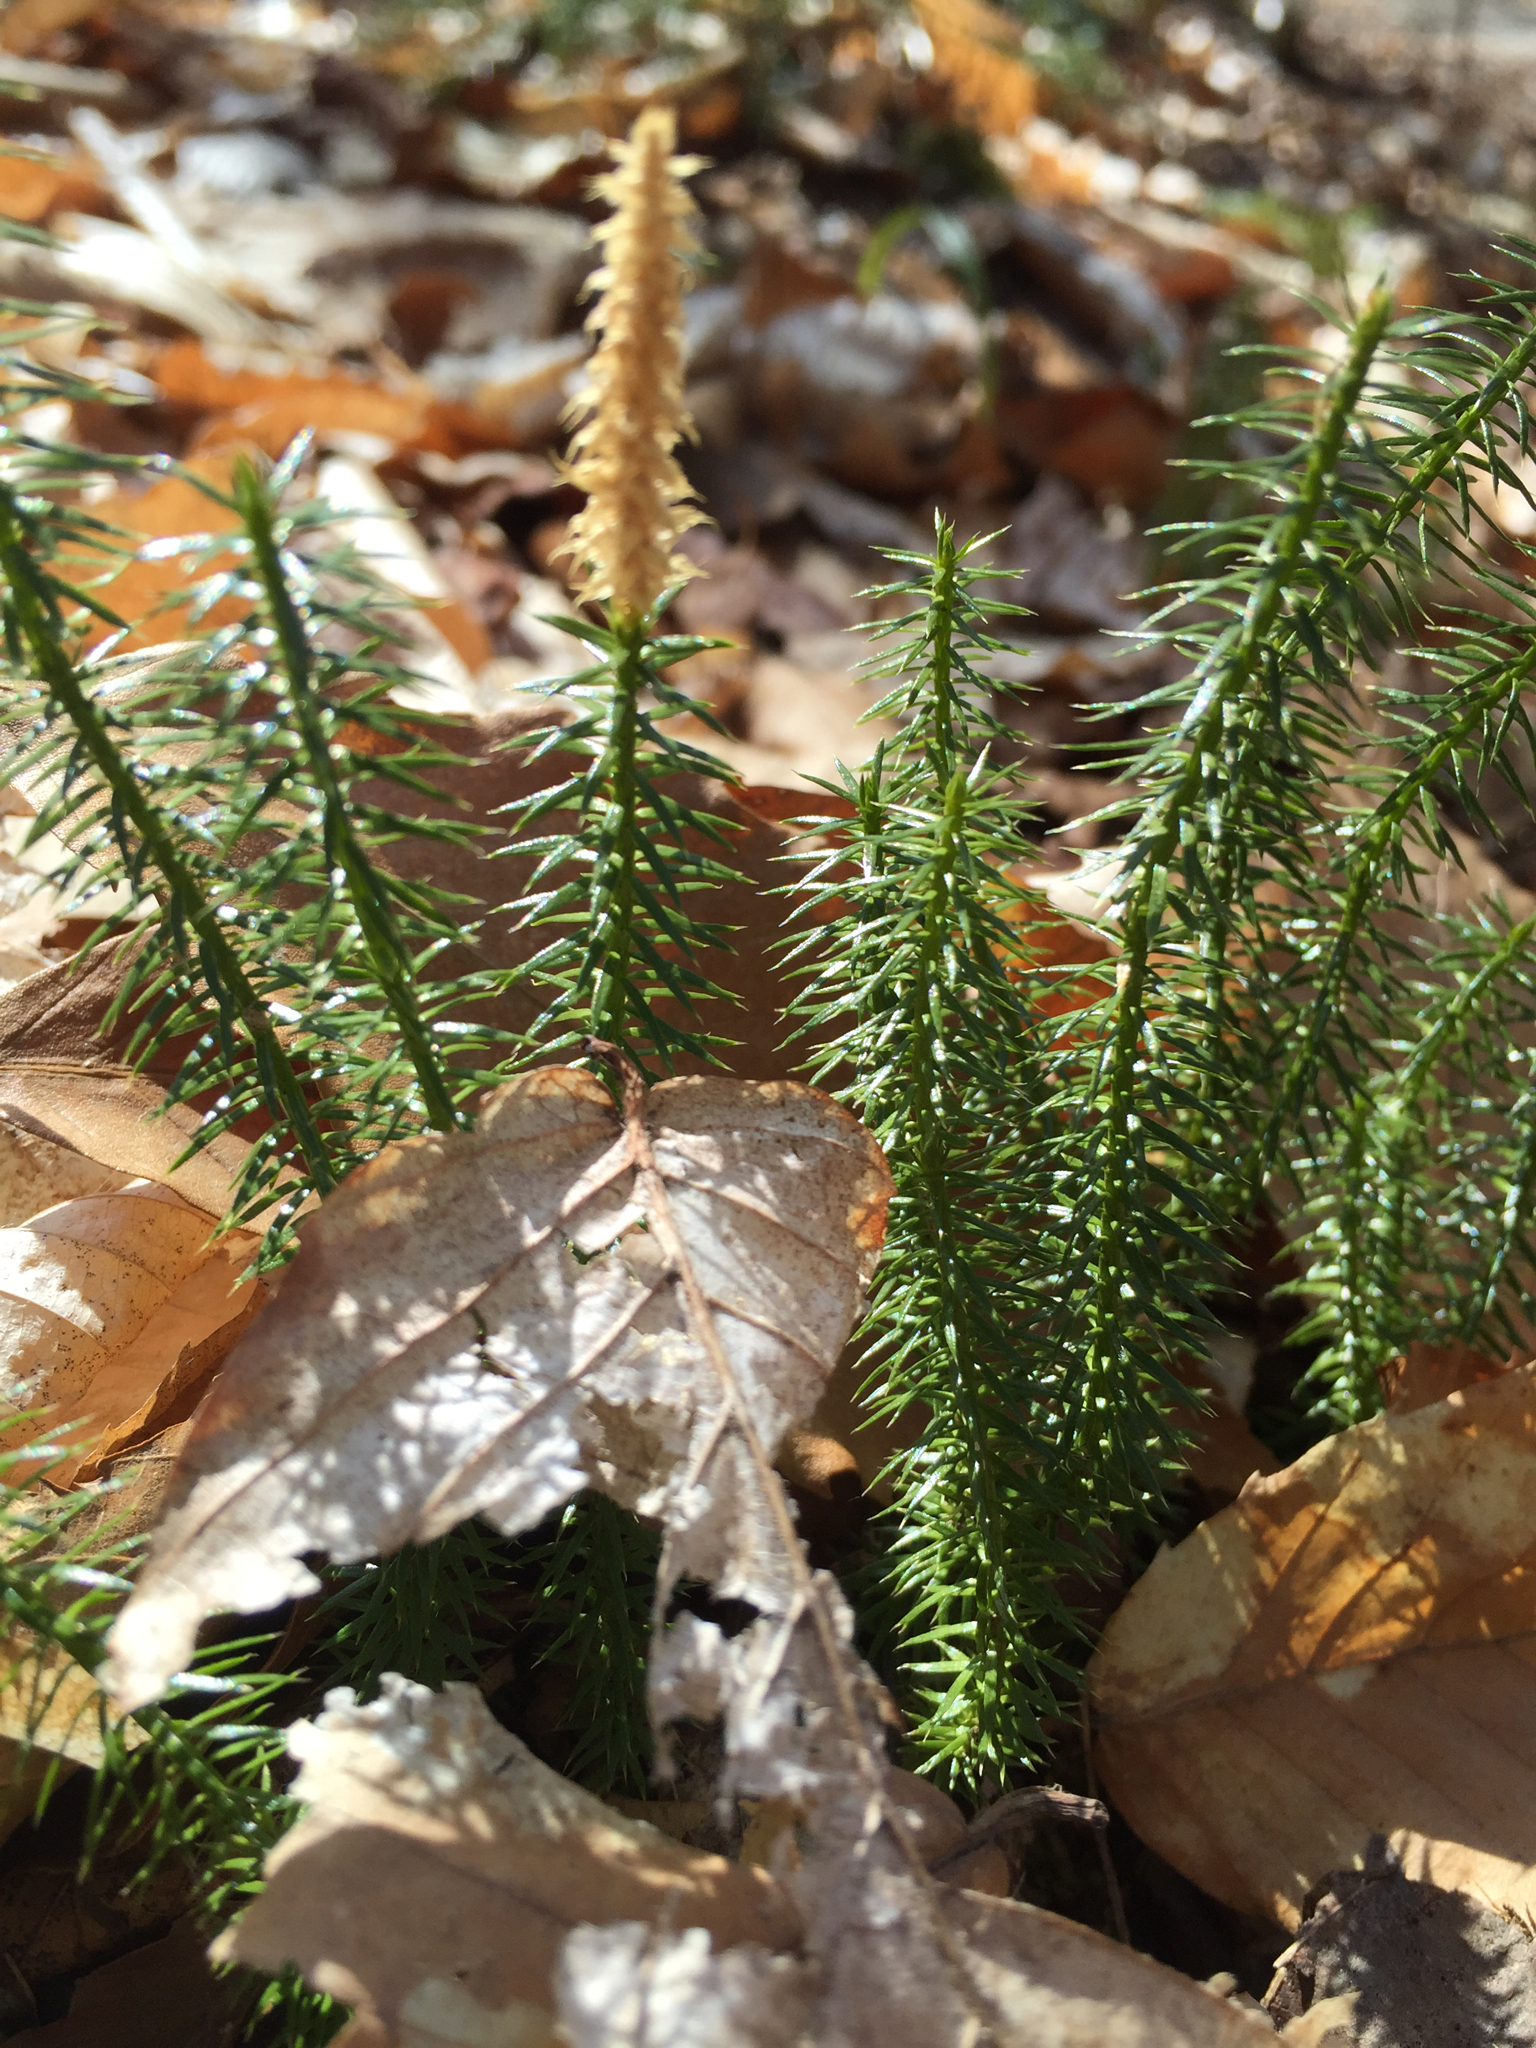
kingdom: Plantae
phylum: Tracheophyta
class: Lycopodiopsida
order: Lycopodiales
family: Lycopodiaceae
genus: Spinulum
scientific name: Spinulum annotinum
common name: Interrupted club-moss
